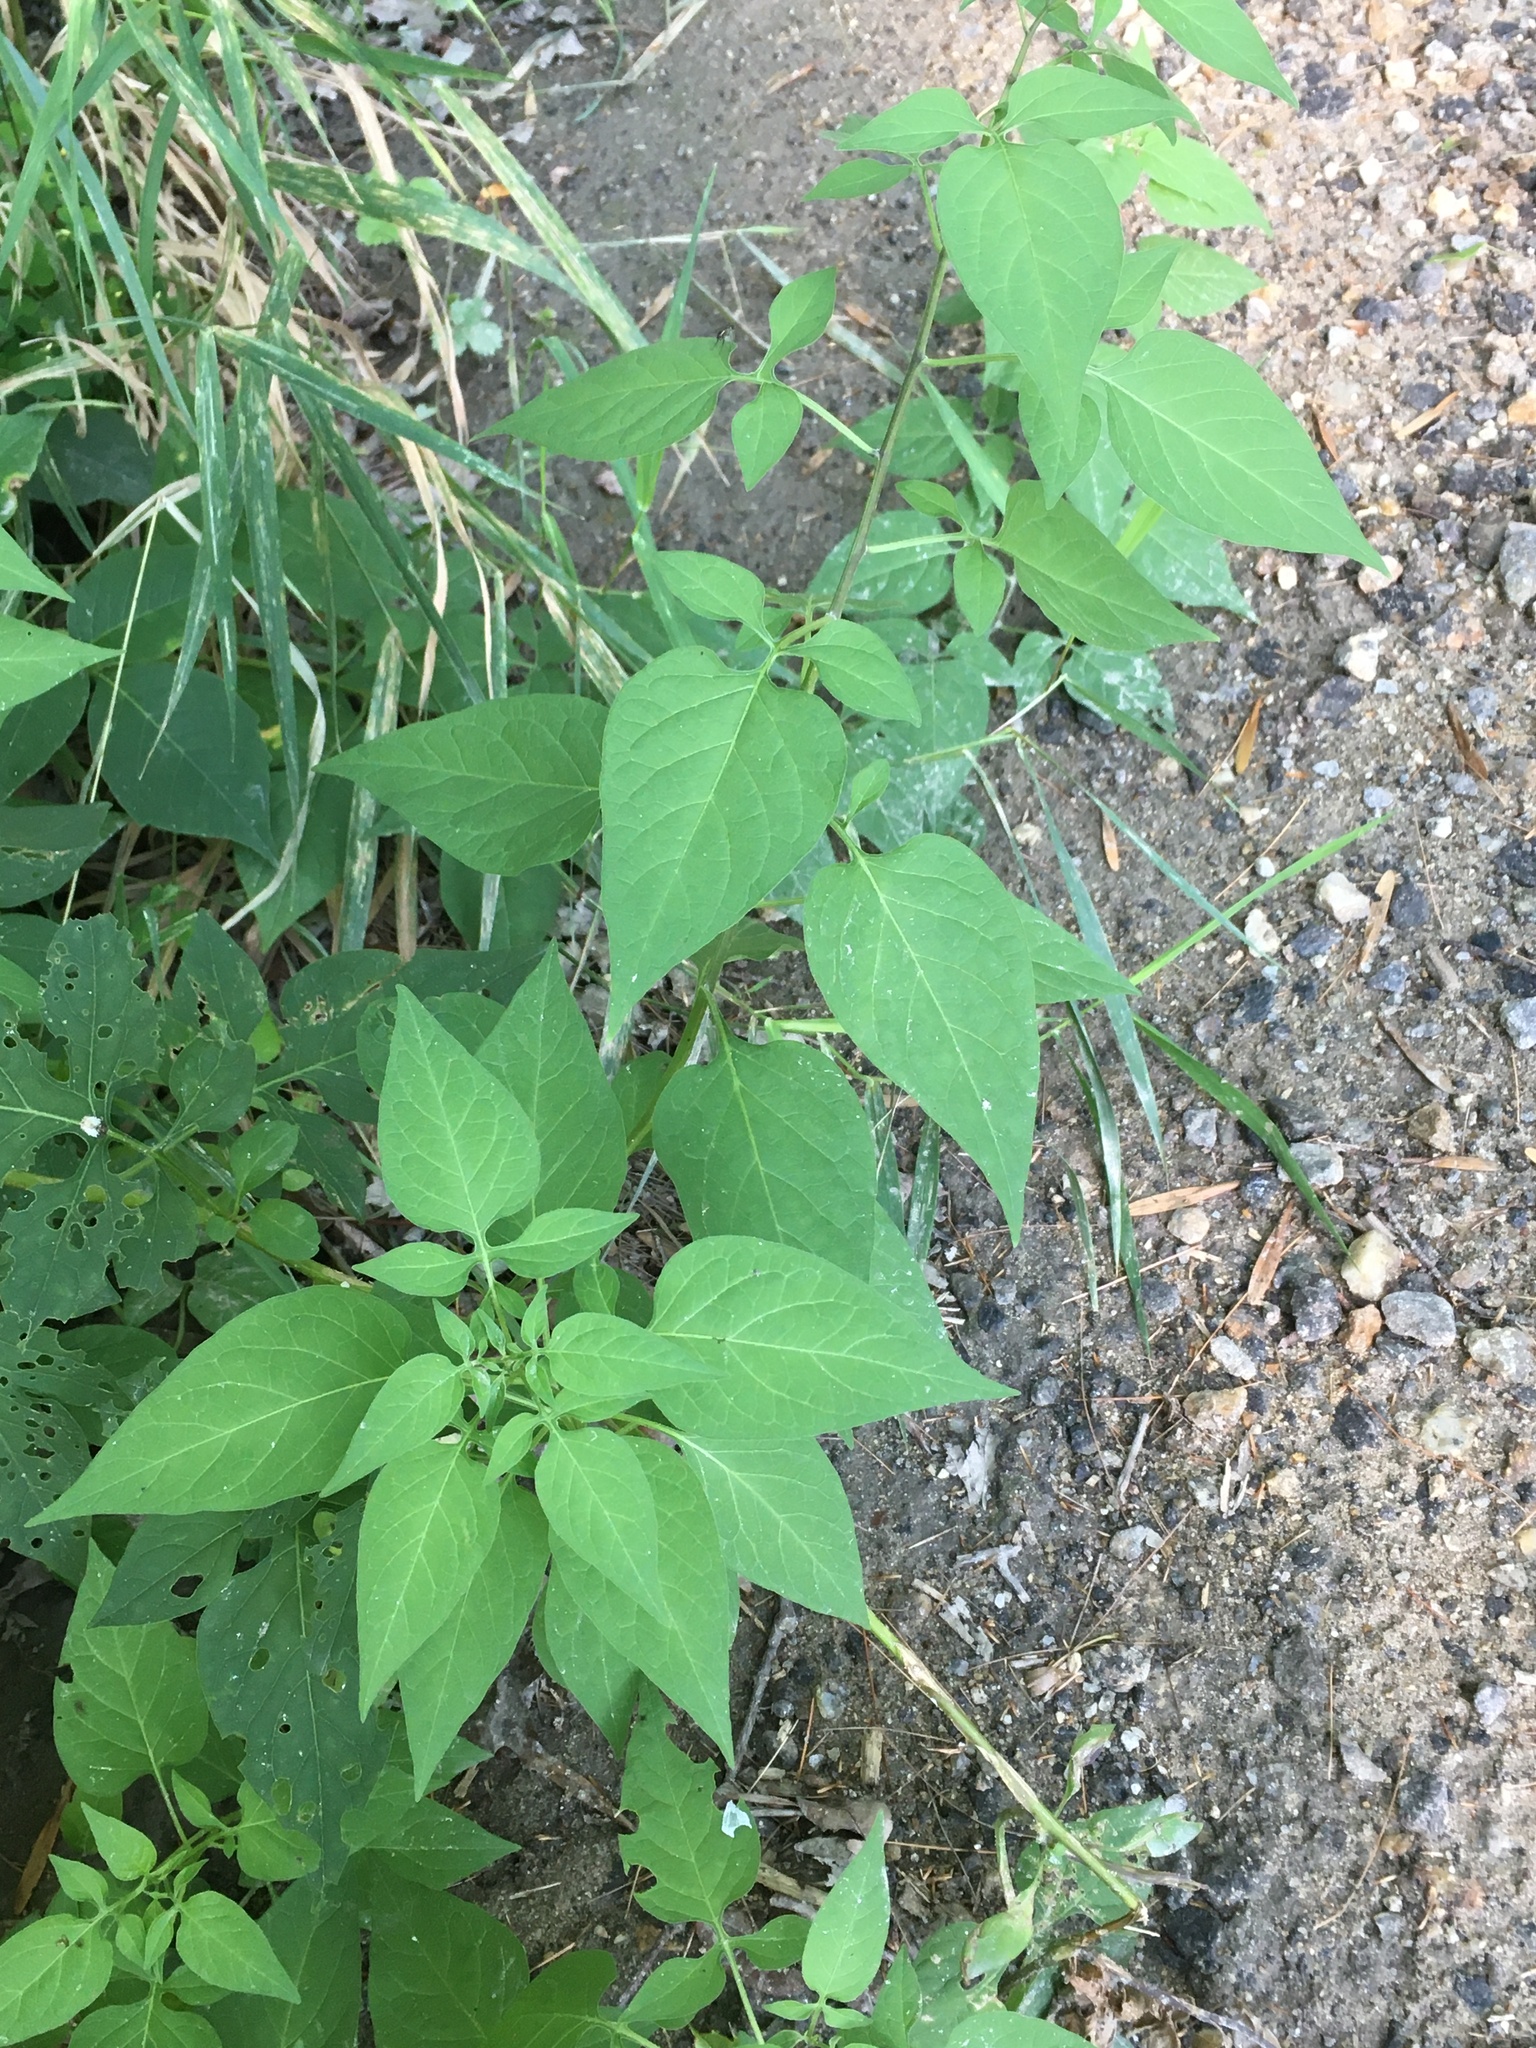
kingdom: Plantae
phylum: Tracheophyta
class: Magnoliopsida
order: Solanales
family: Solanaceae
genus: Solanum
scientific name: Solanum dulcamara
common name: Climbing nightshade
